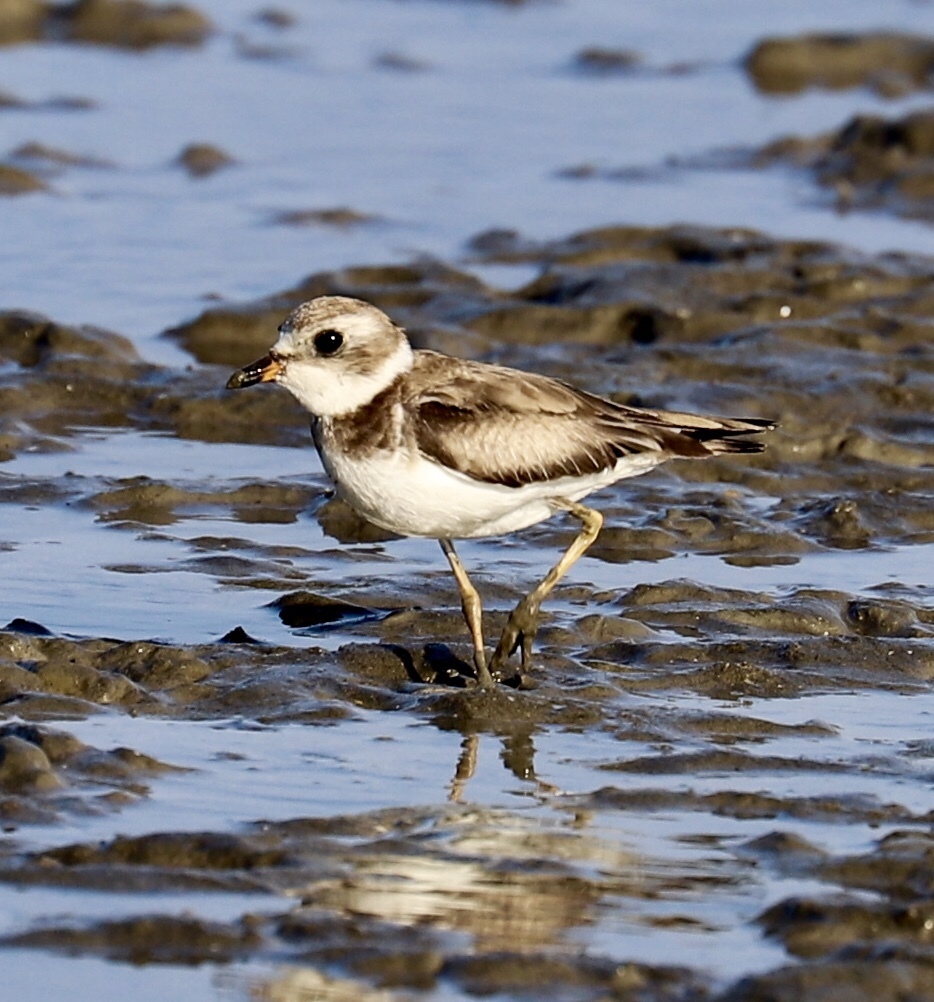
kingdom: Animalia
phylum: Chordata
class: Aves
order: Charadriiformes
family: Charadriidae
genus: Charadrius
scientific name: Charadrius semipalmatus
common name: Semipalmated plover
